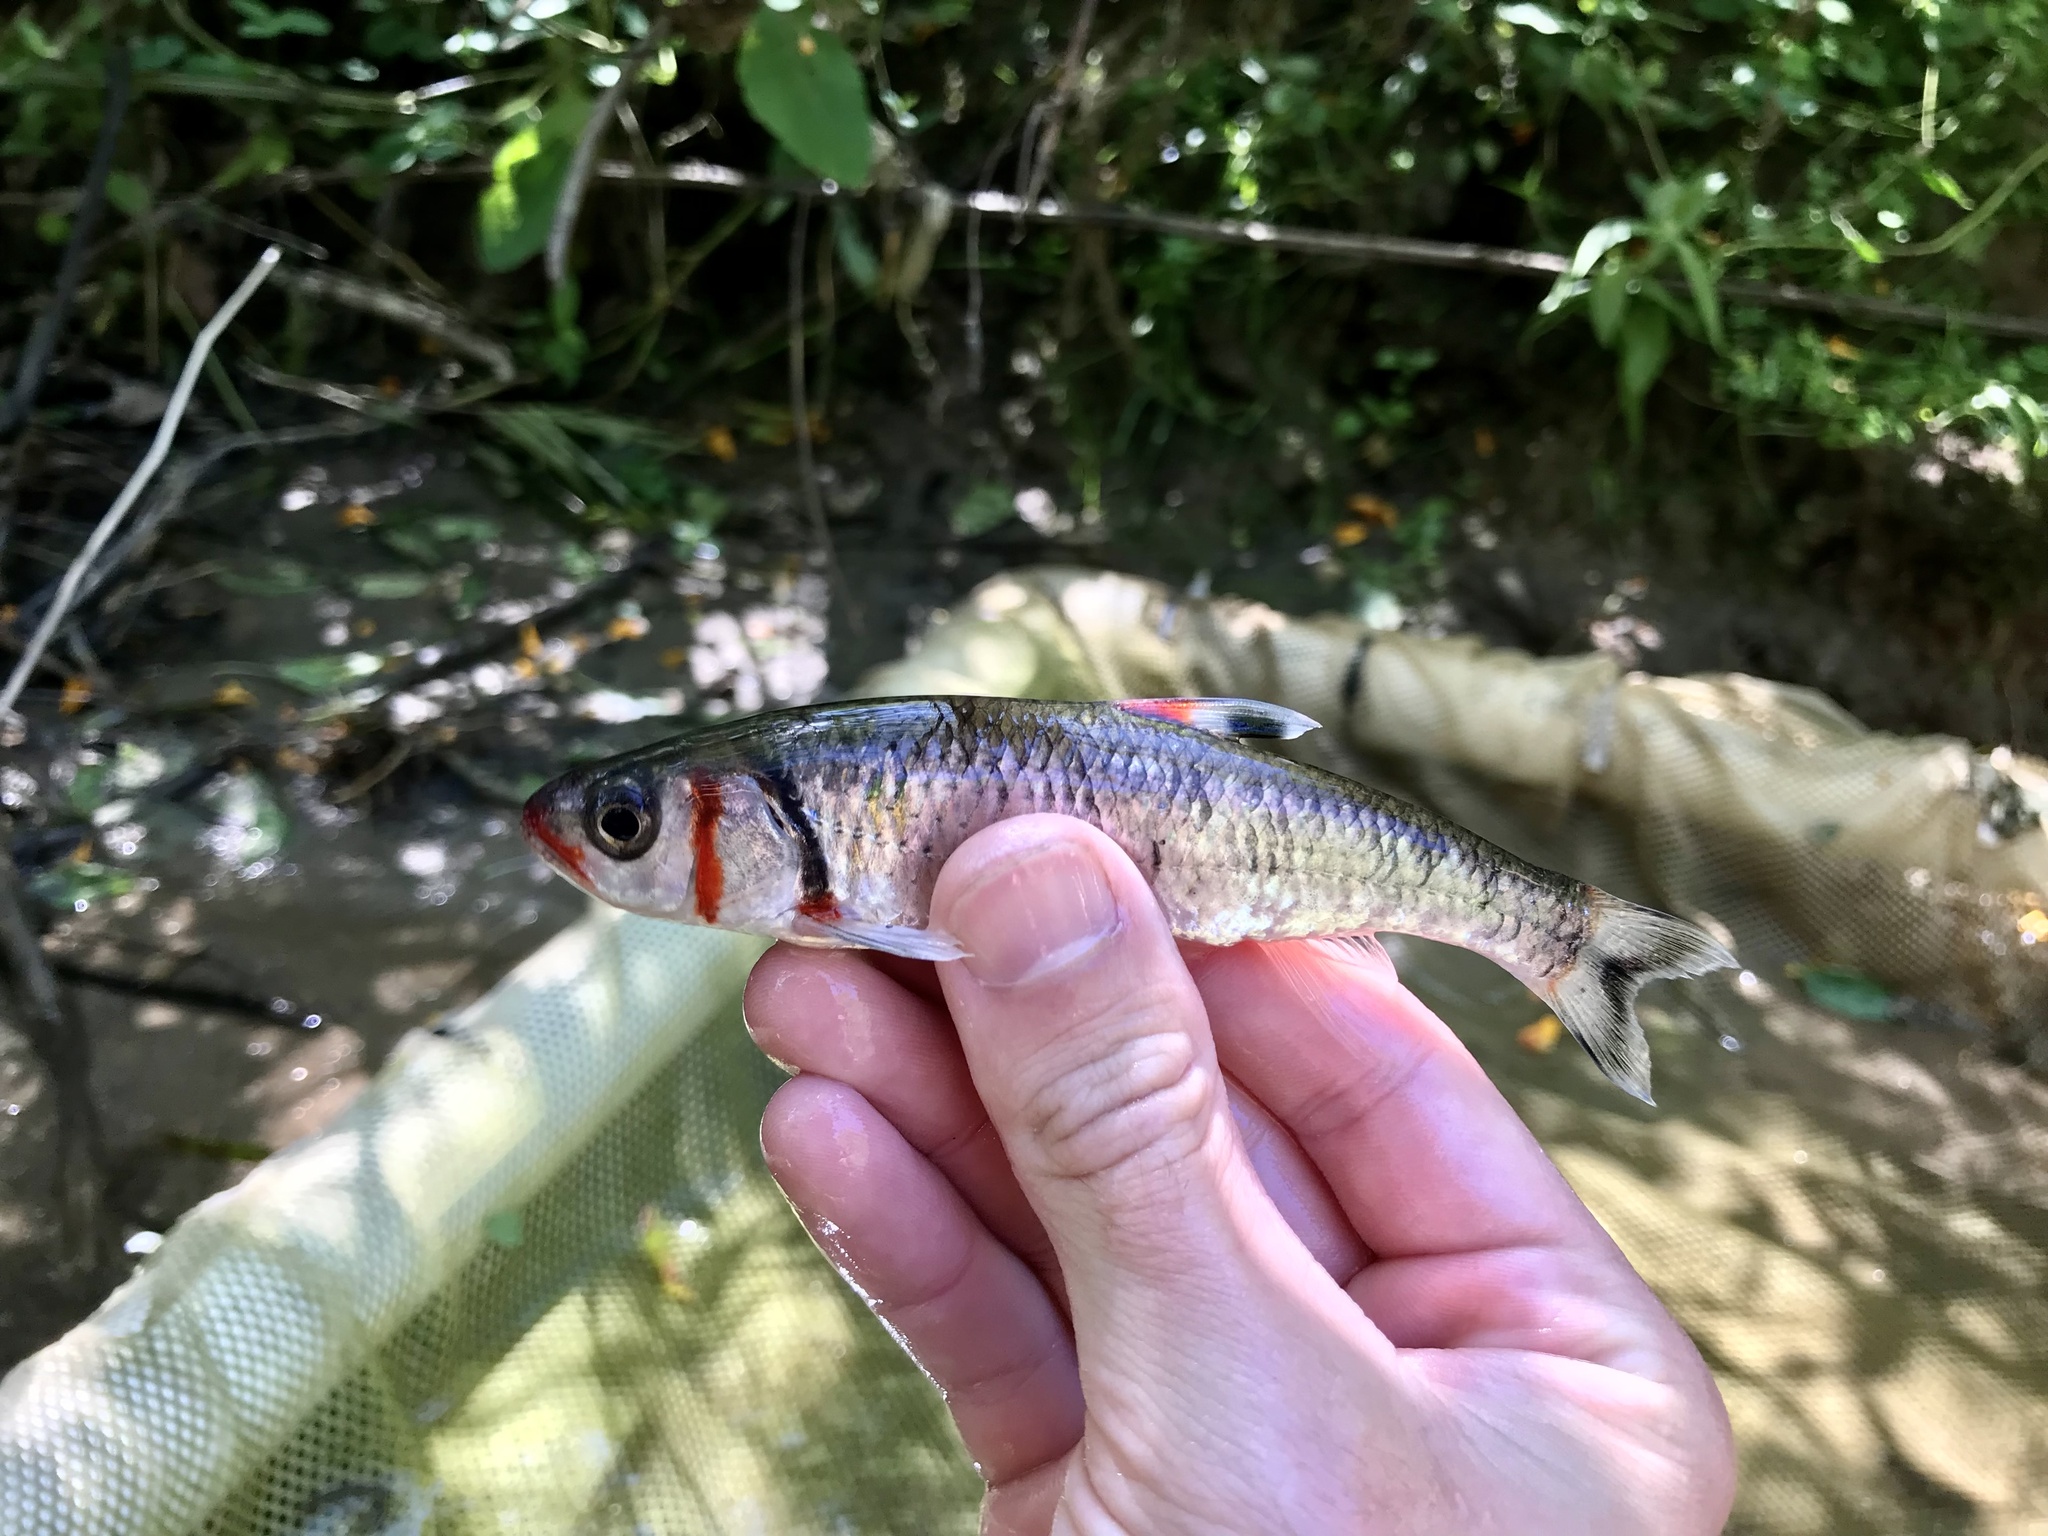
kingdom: Animalia
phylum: Chordata
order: Cypriniformes
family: Cyprinidae
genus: Luxilus
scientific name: Luxilus
